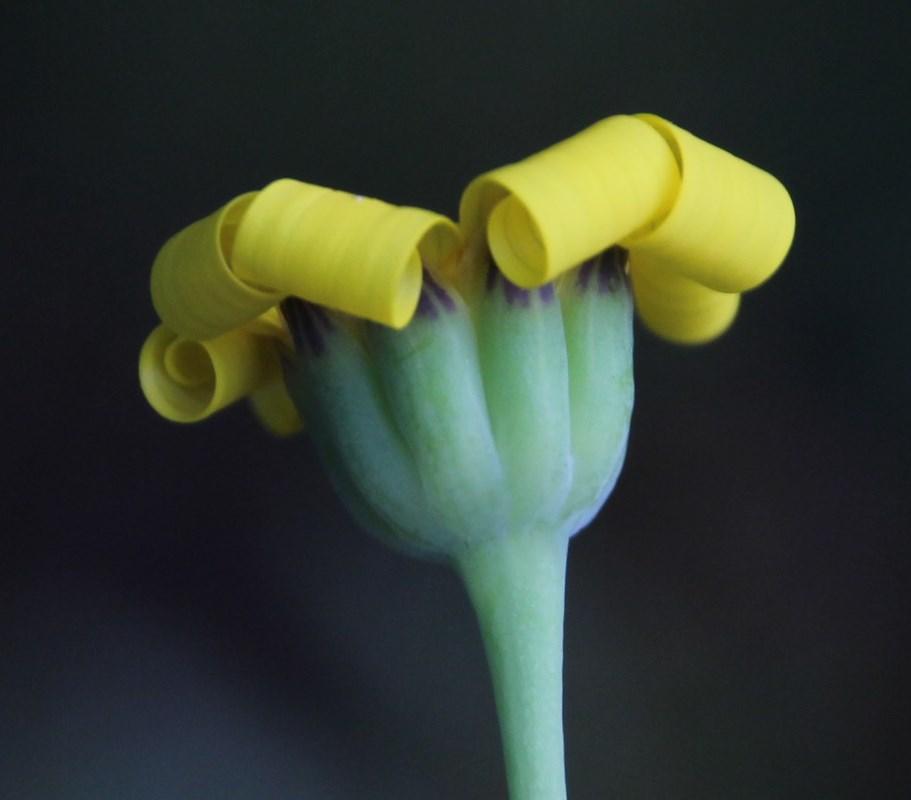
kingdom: Plantae
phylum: Tracheophyta
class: Magnoliopsida
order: Asterales
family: Asteraceae
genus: Othonna
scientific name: Othonna quinquedentata
